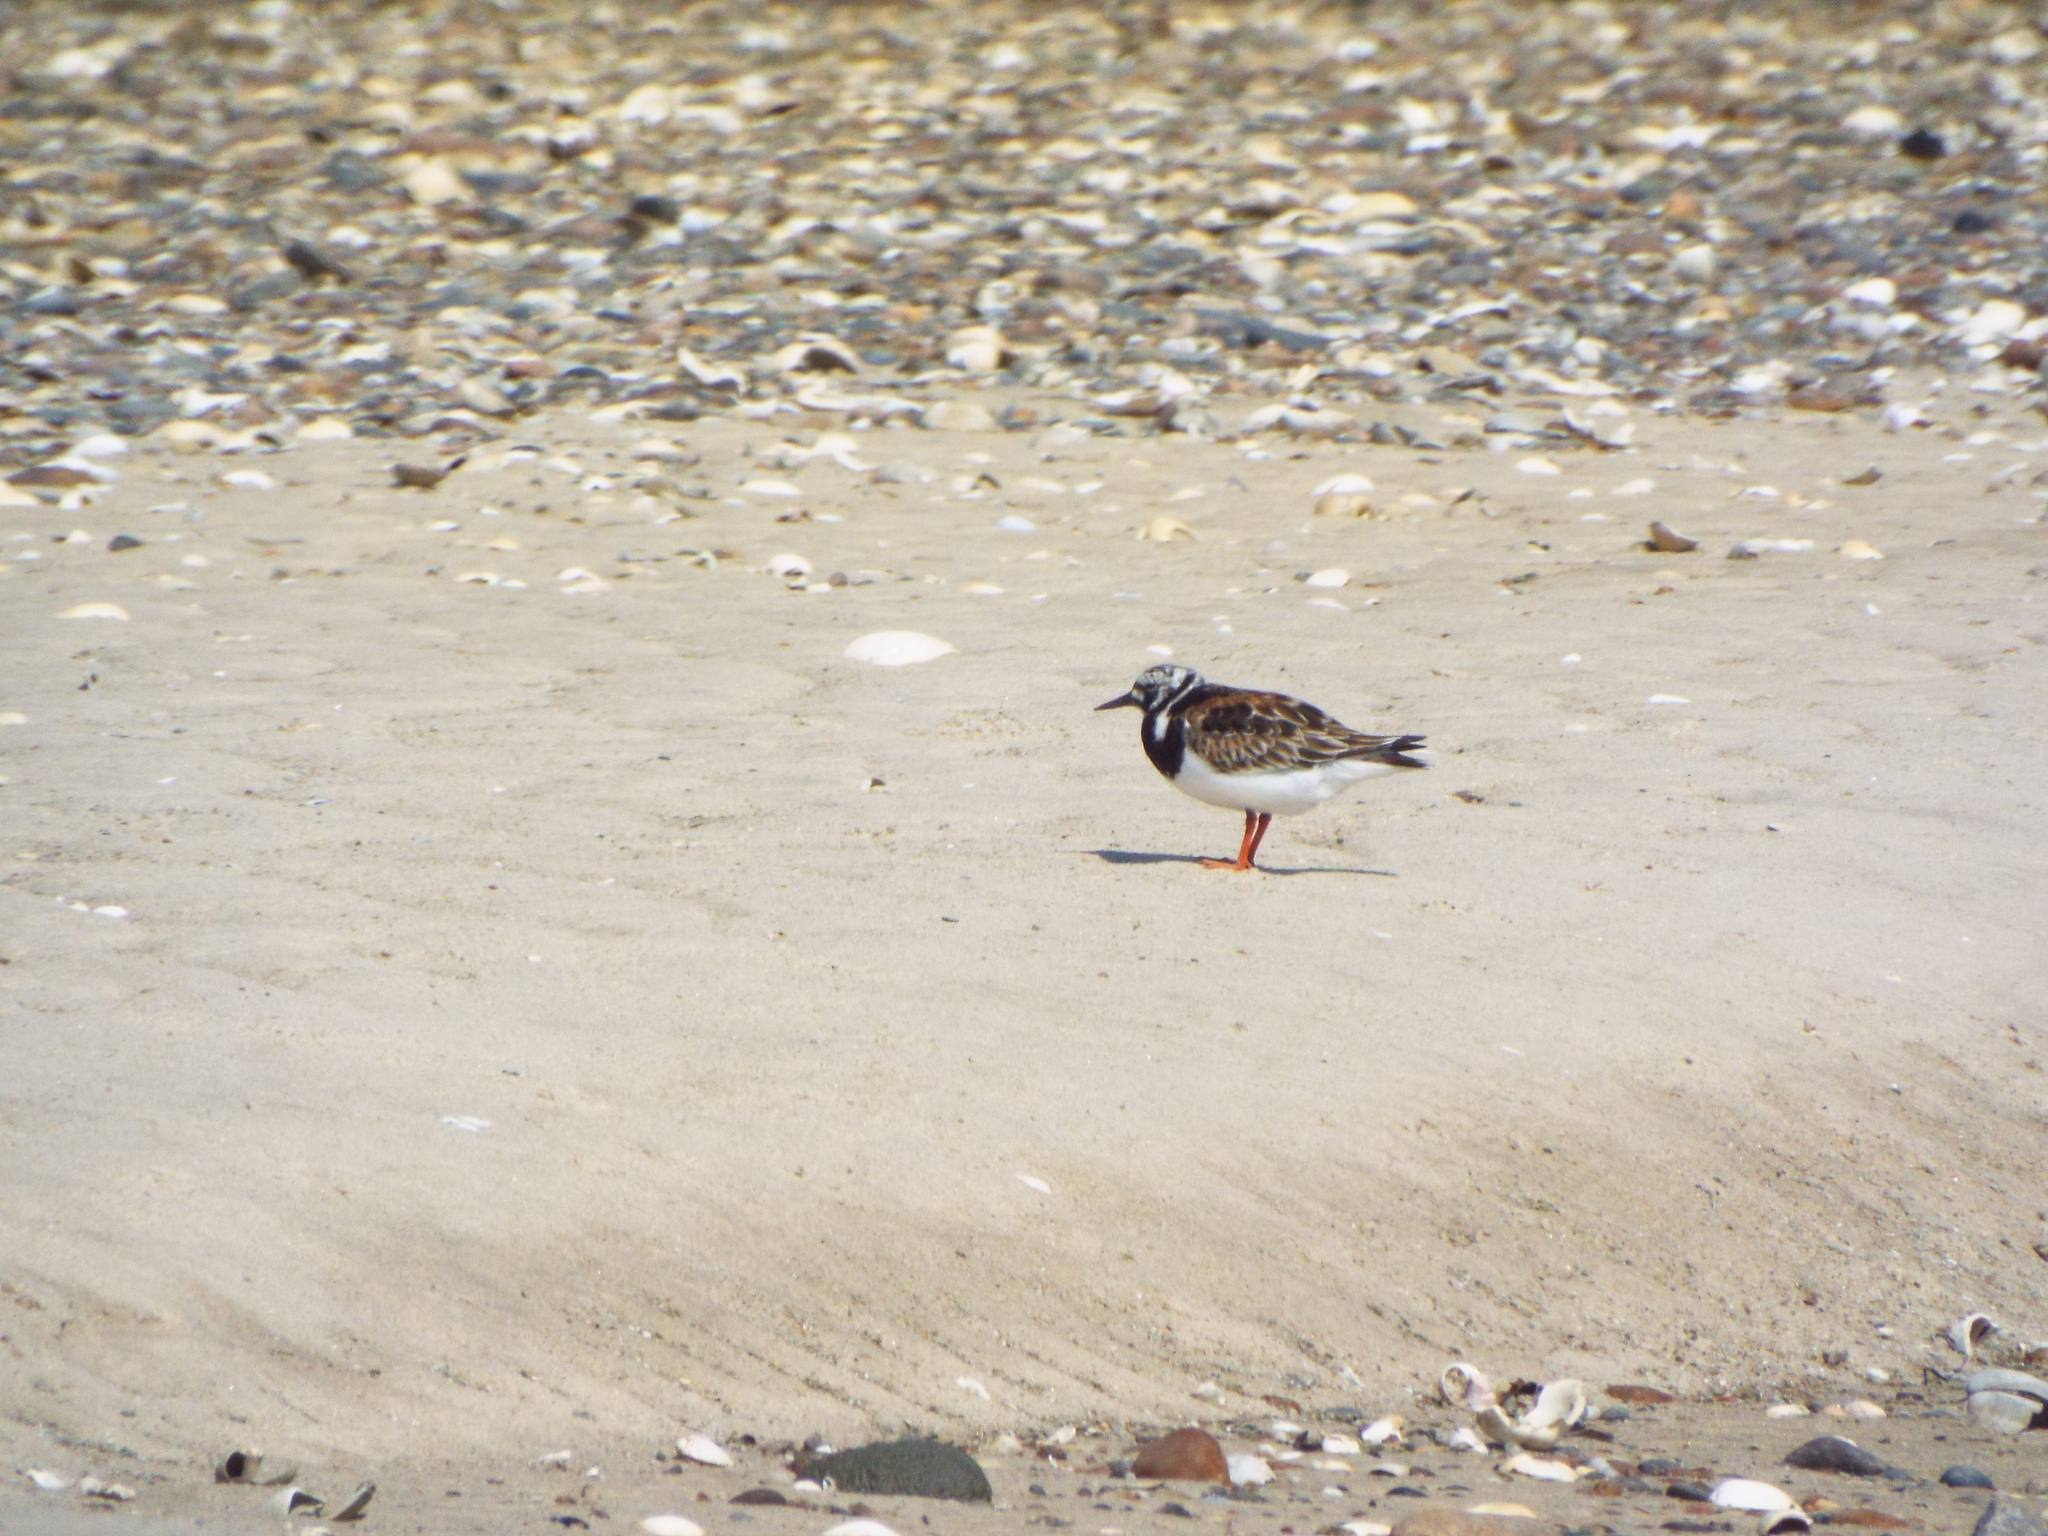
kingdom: Animalia
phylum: Chordata
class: Aves
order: Charadriiformes
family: Scolopacidae
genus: Arenaria
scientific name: Arenaria interpres
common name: Ruddy turnstone
